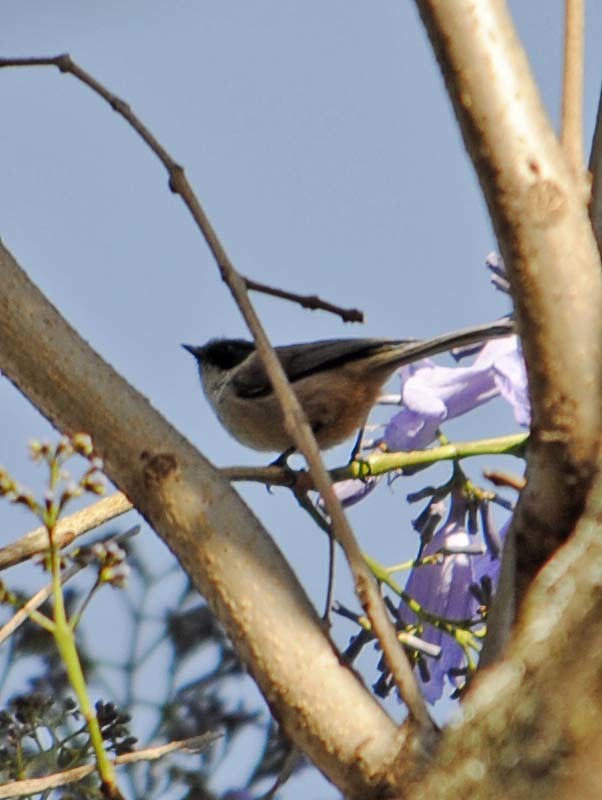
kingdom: Animalia
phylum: Chordata
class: Aves
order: Passeriformes
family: Aegithalidae
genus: Psaltriparus
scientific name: Psaltriparus minimus
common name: American bushtit
